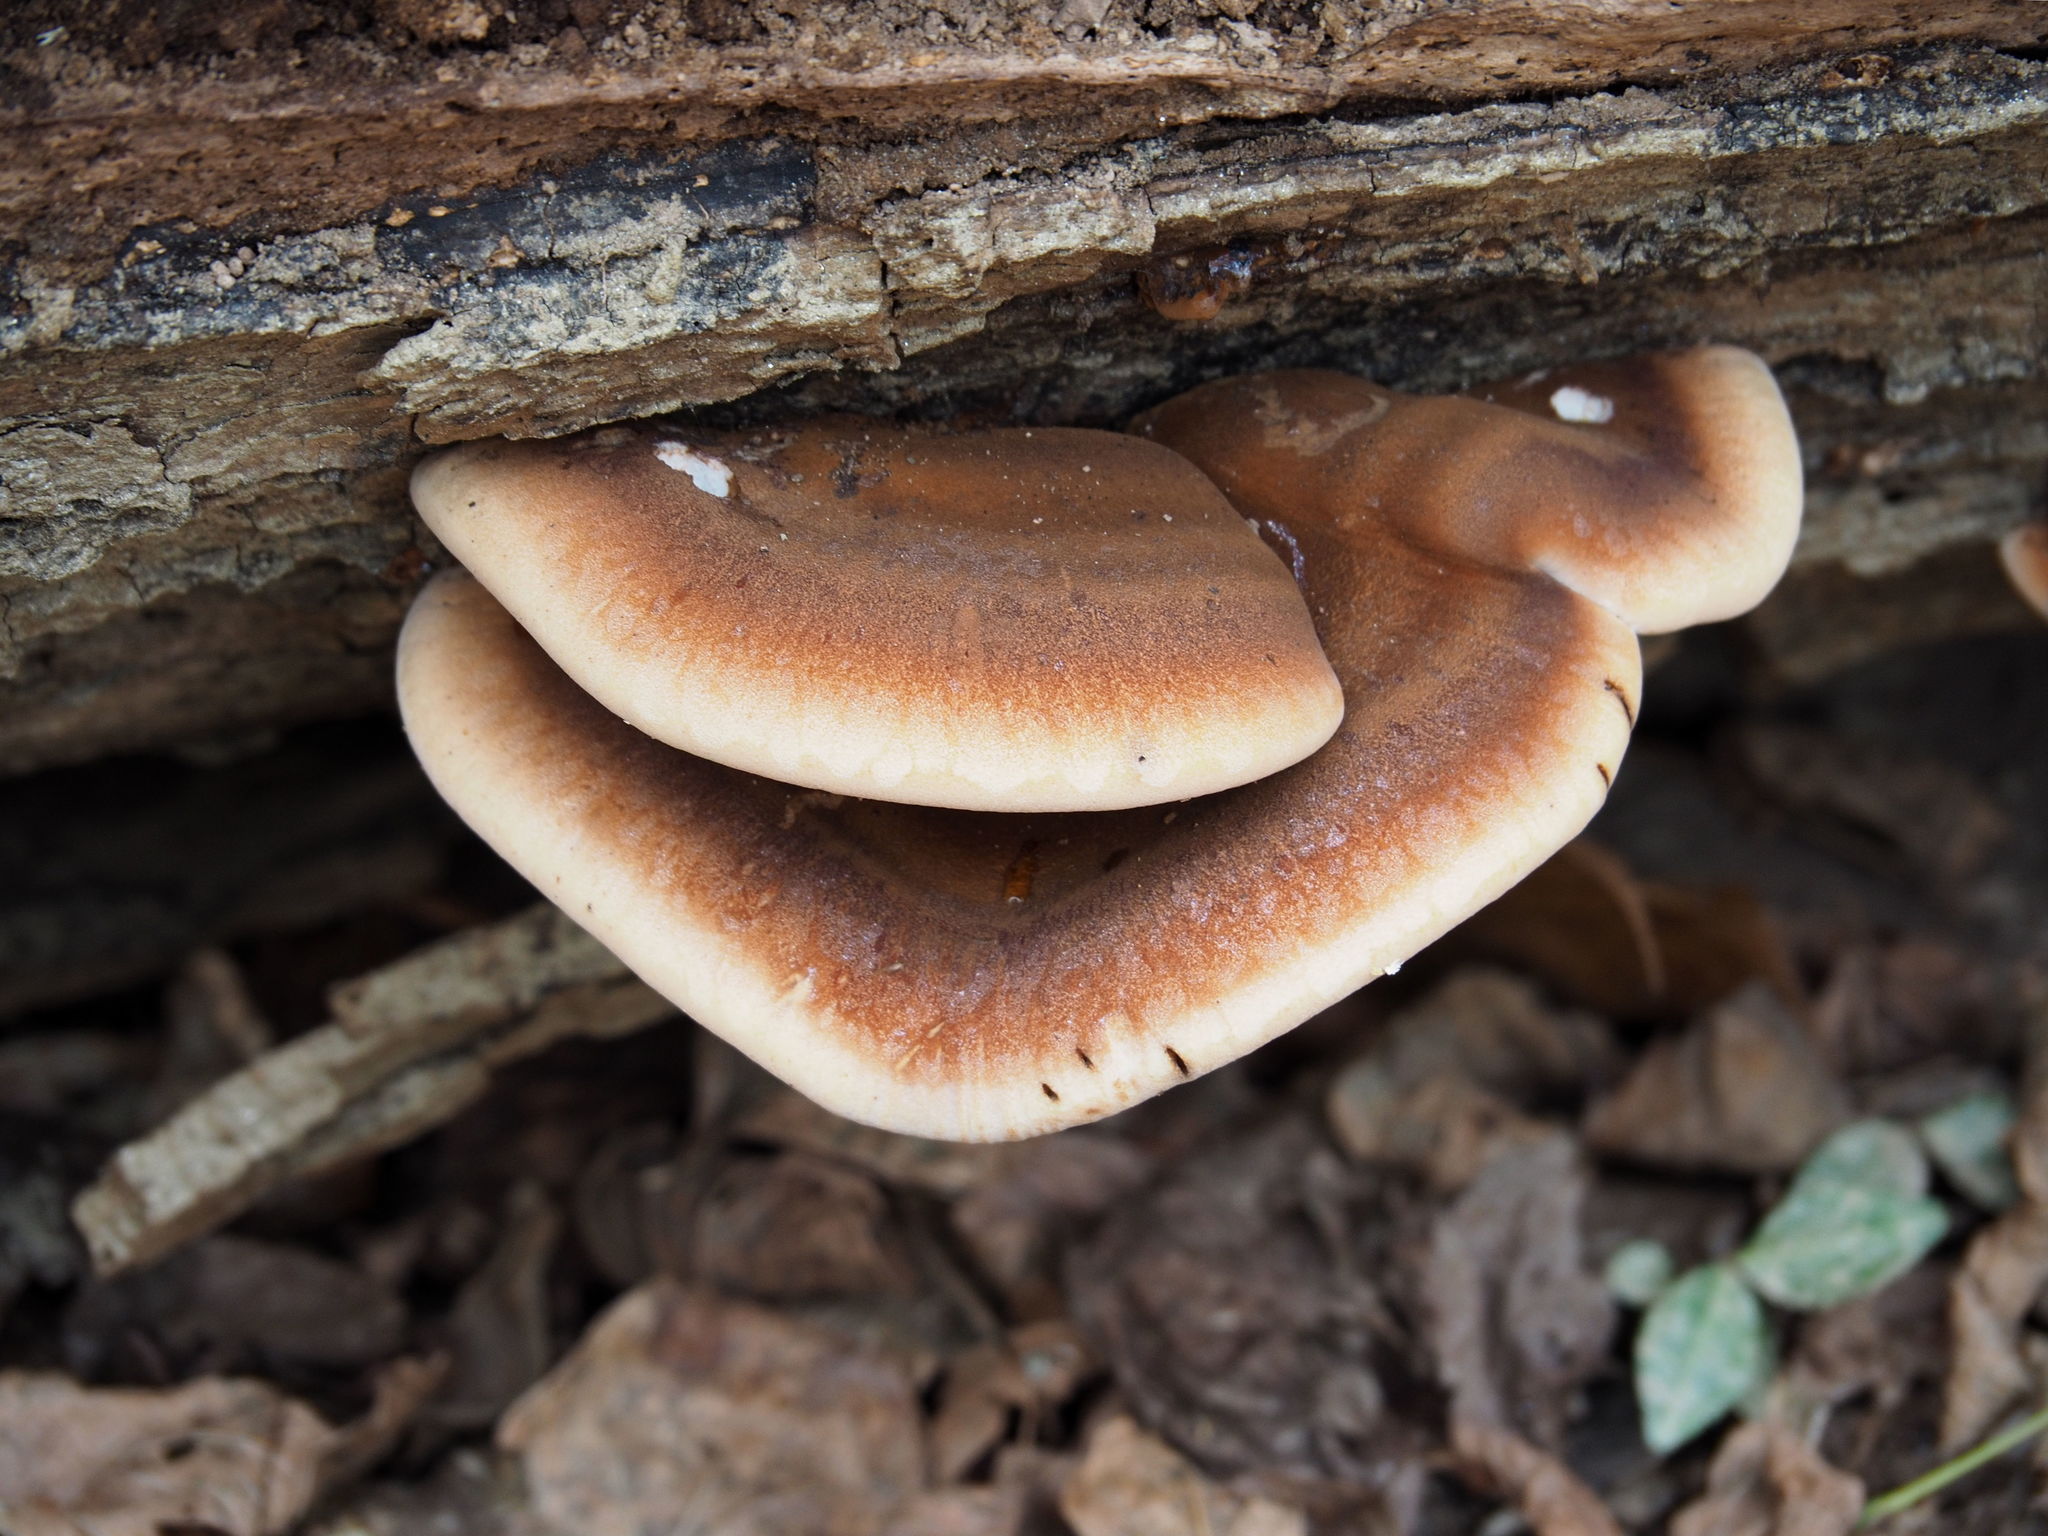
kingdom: Fungi
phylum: Basidiomycota
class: Agaricomycetes
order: Polyporales
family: Ischnodermataceae
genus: Ischnoderma
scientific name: Ischnoderma resinosum
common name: Resinous polypore
